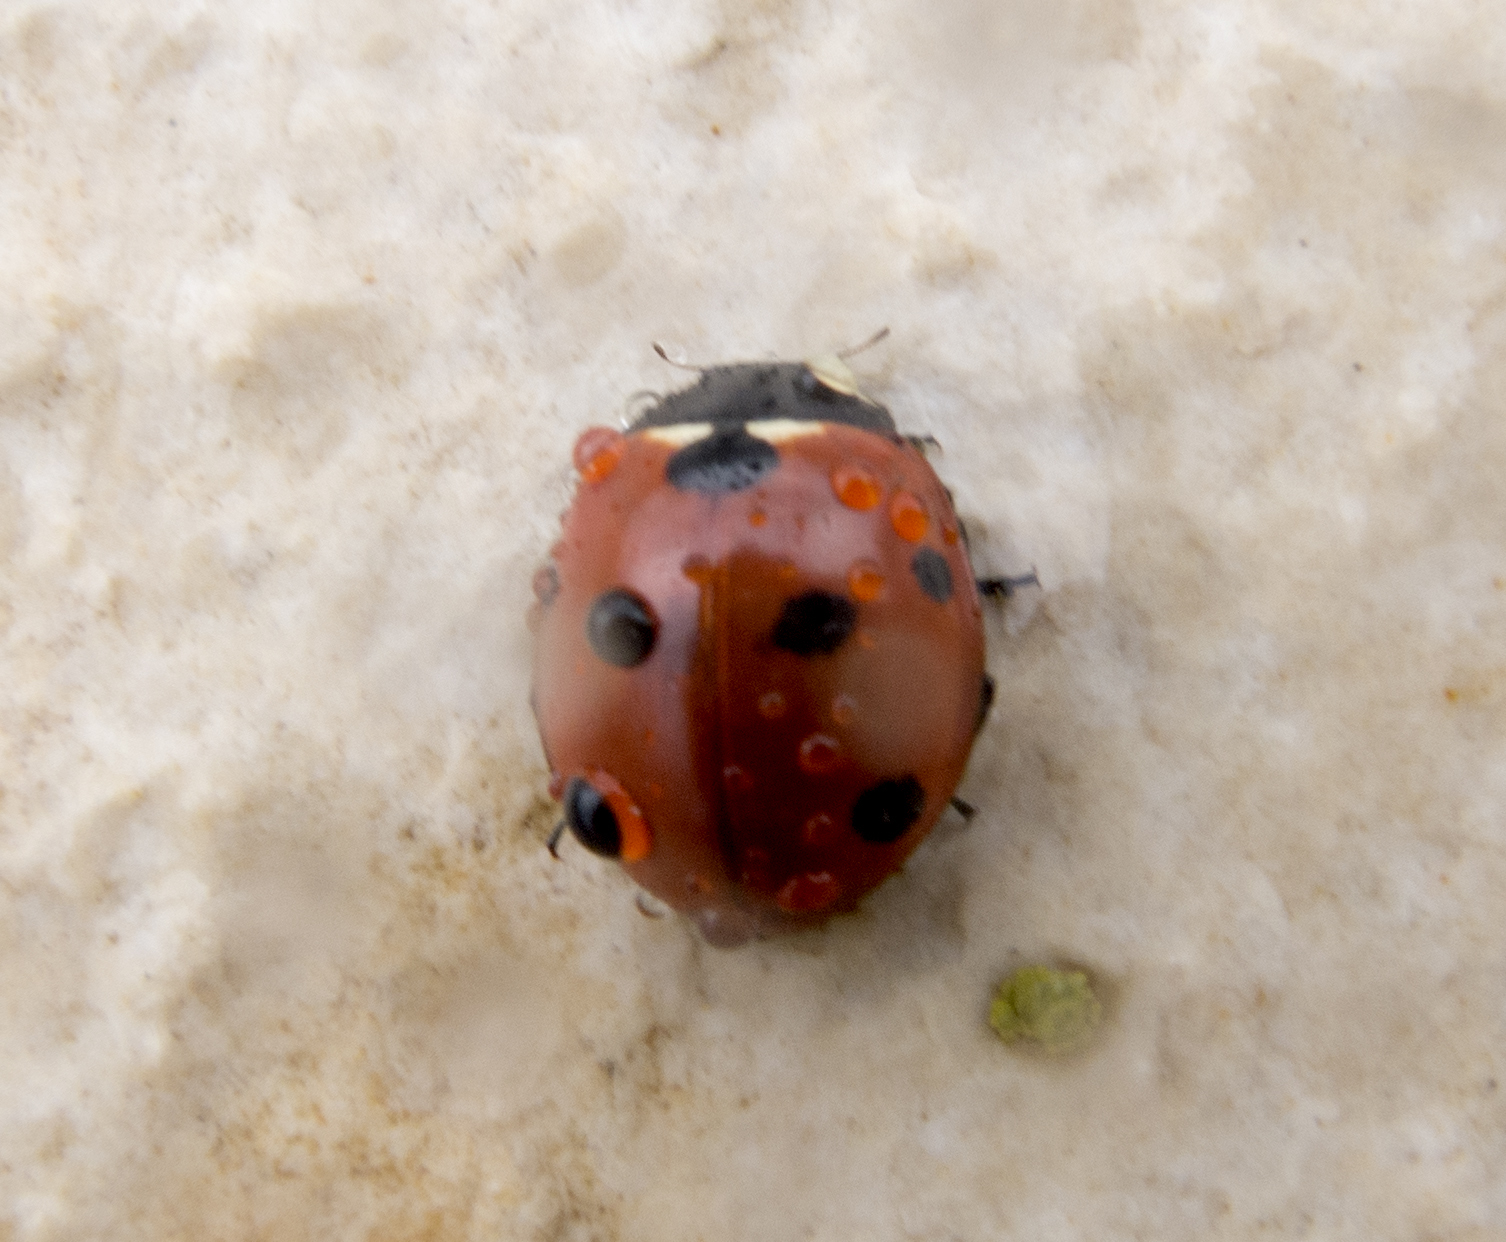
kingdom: Animalia
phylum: Arthropoda
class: Insecta
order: Coleoptera
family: Coccinellidae
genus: Coccinella
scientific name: Coccinella septempunctata
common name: Sevenspotted lady beetle
